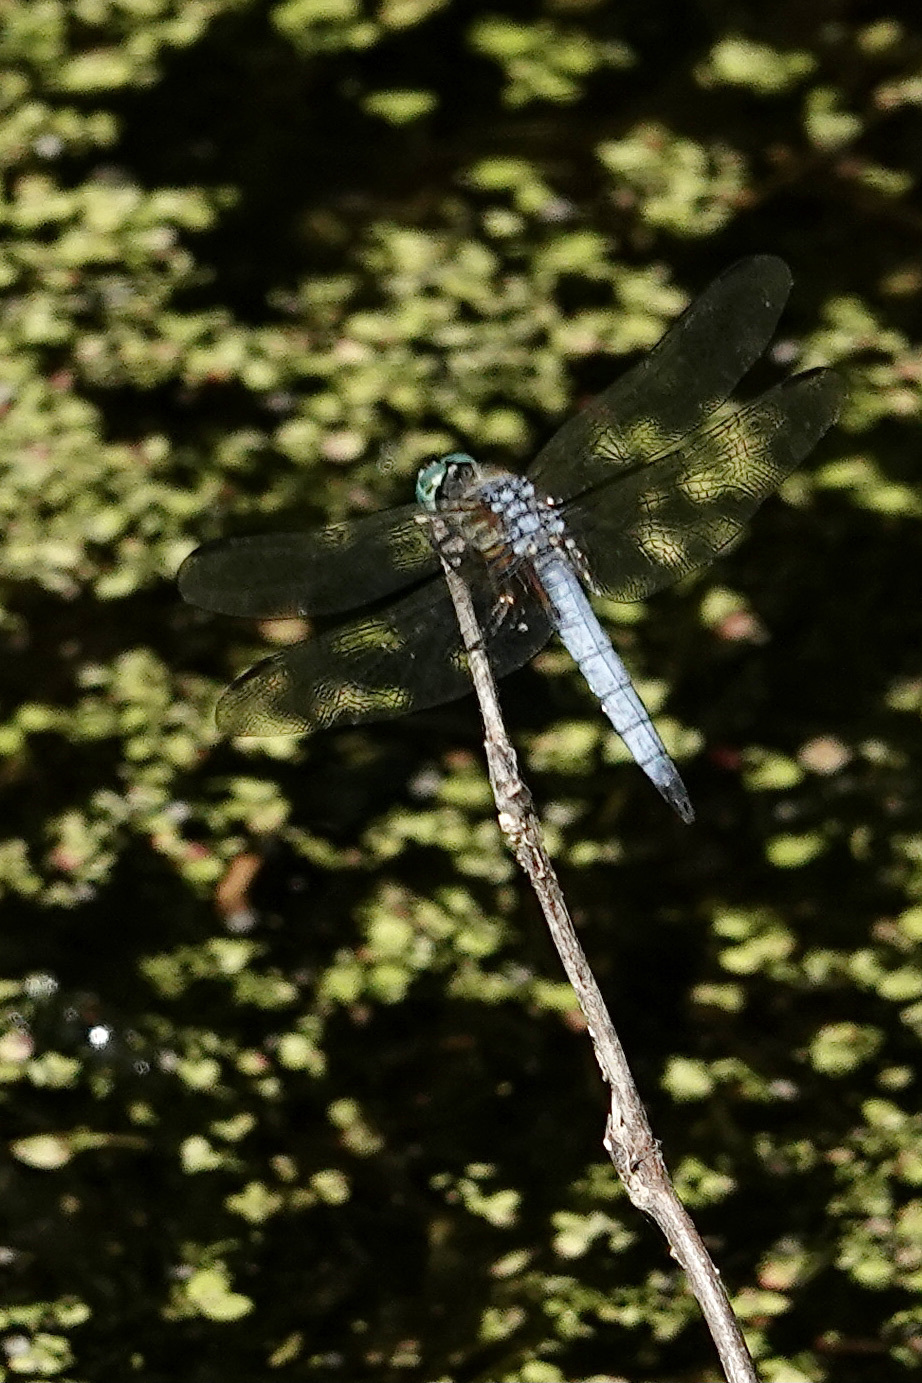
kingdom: Animalia
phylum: Arthropoda
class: Insecta
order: Odonata
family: Libellulidae
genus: Pachydiplax
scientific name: Pachydiplax longipennis
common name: Blue dasher
